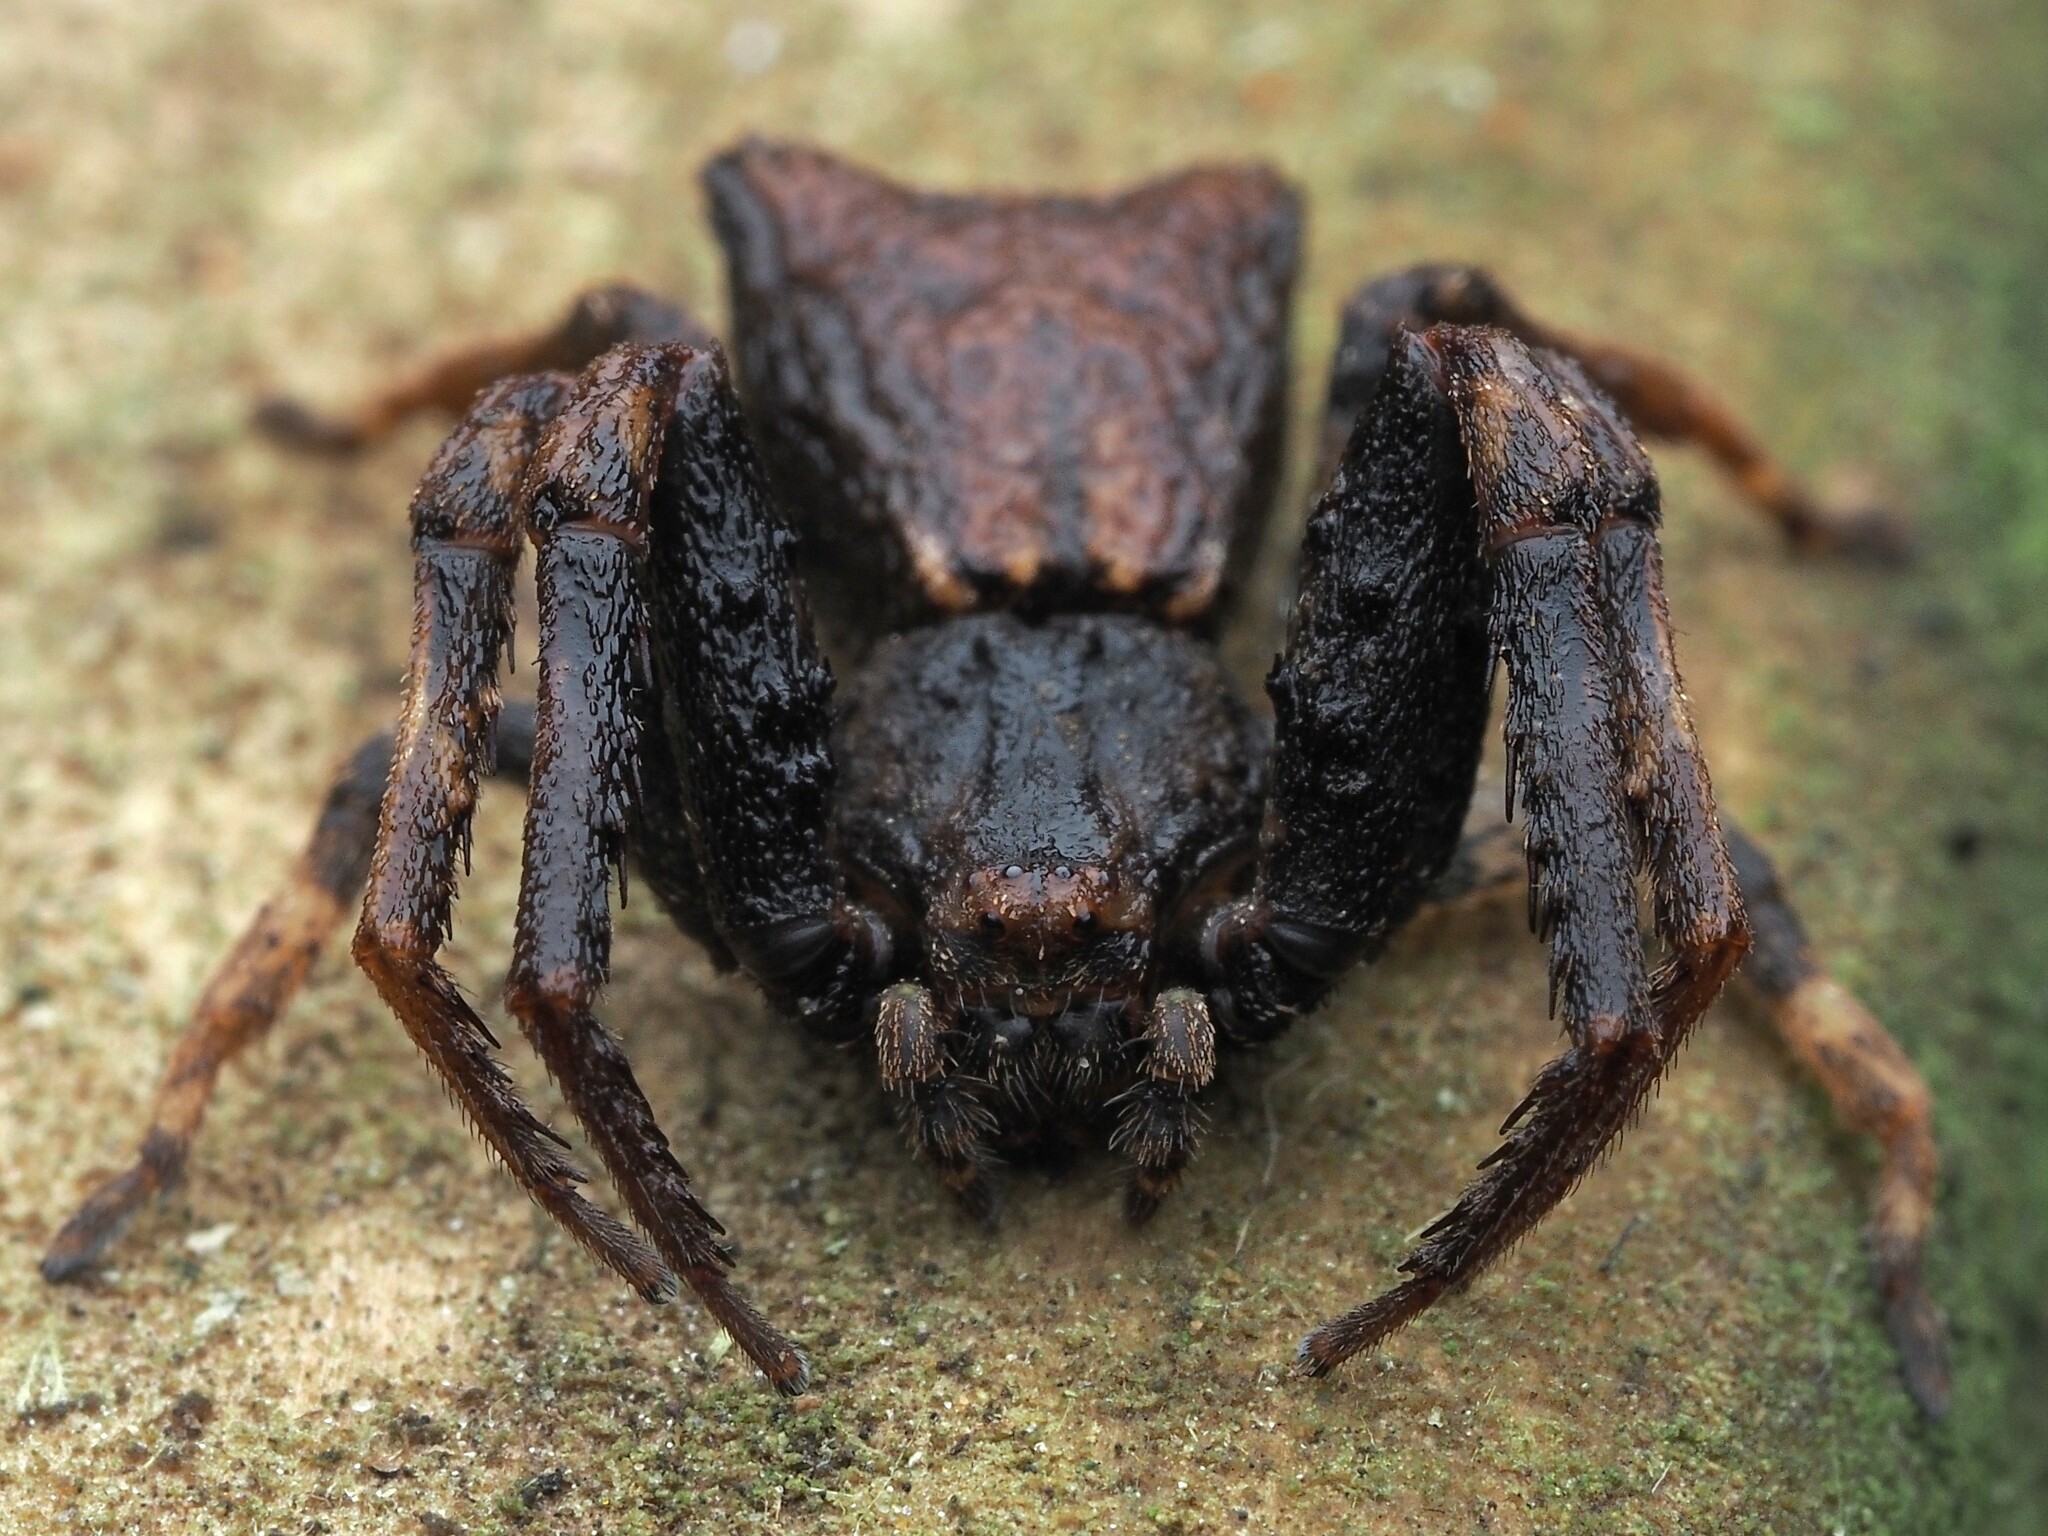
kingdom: Animalia
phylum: Arthropoda
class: Arachnida
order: Araneae
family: Thomisidae
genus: Sidymella
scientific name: Sidymella angularis
